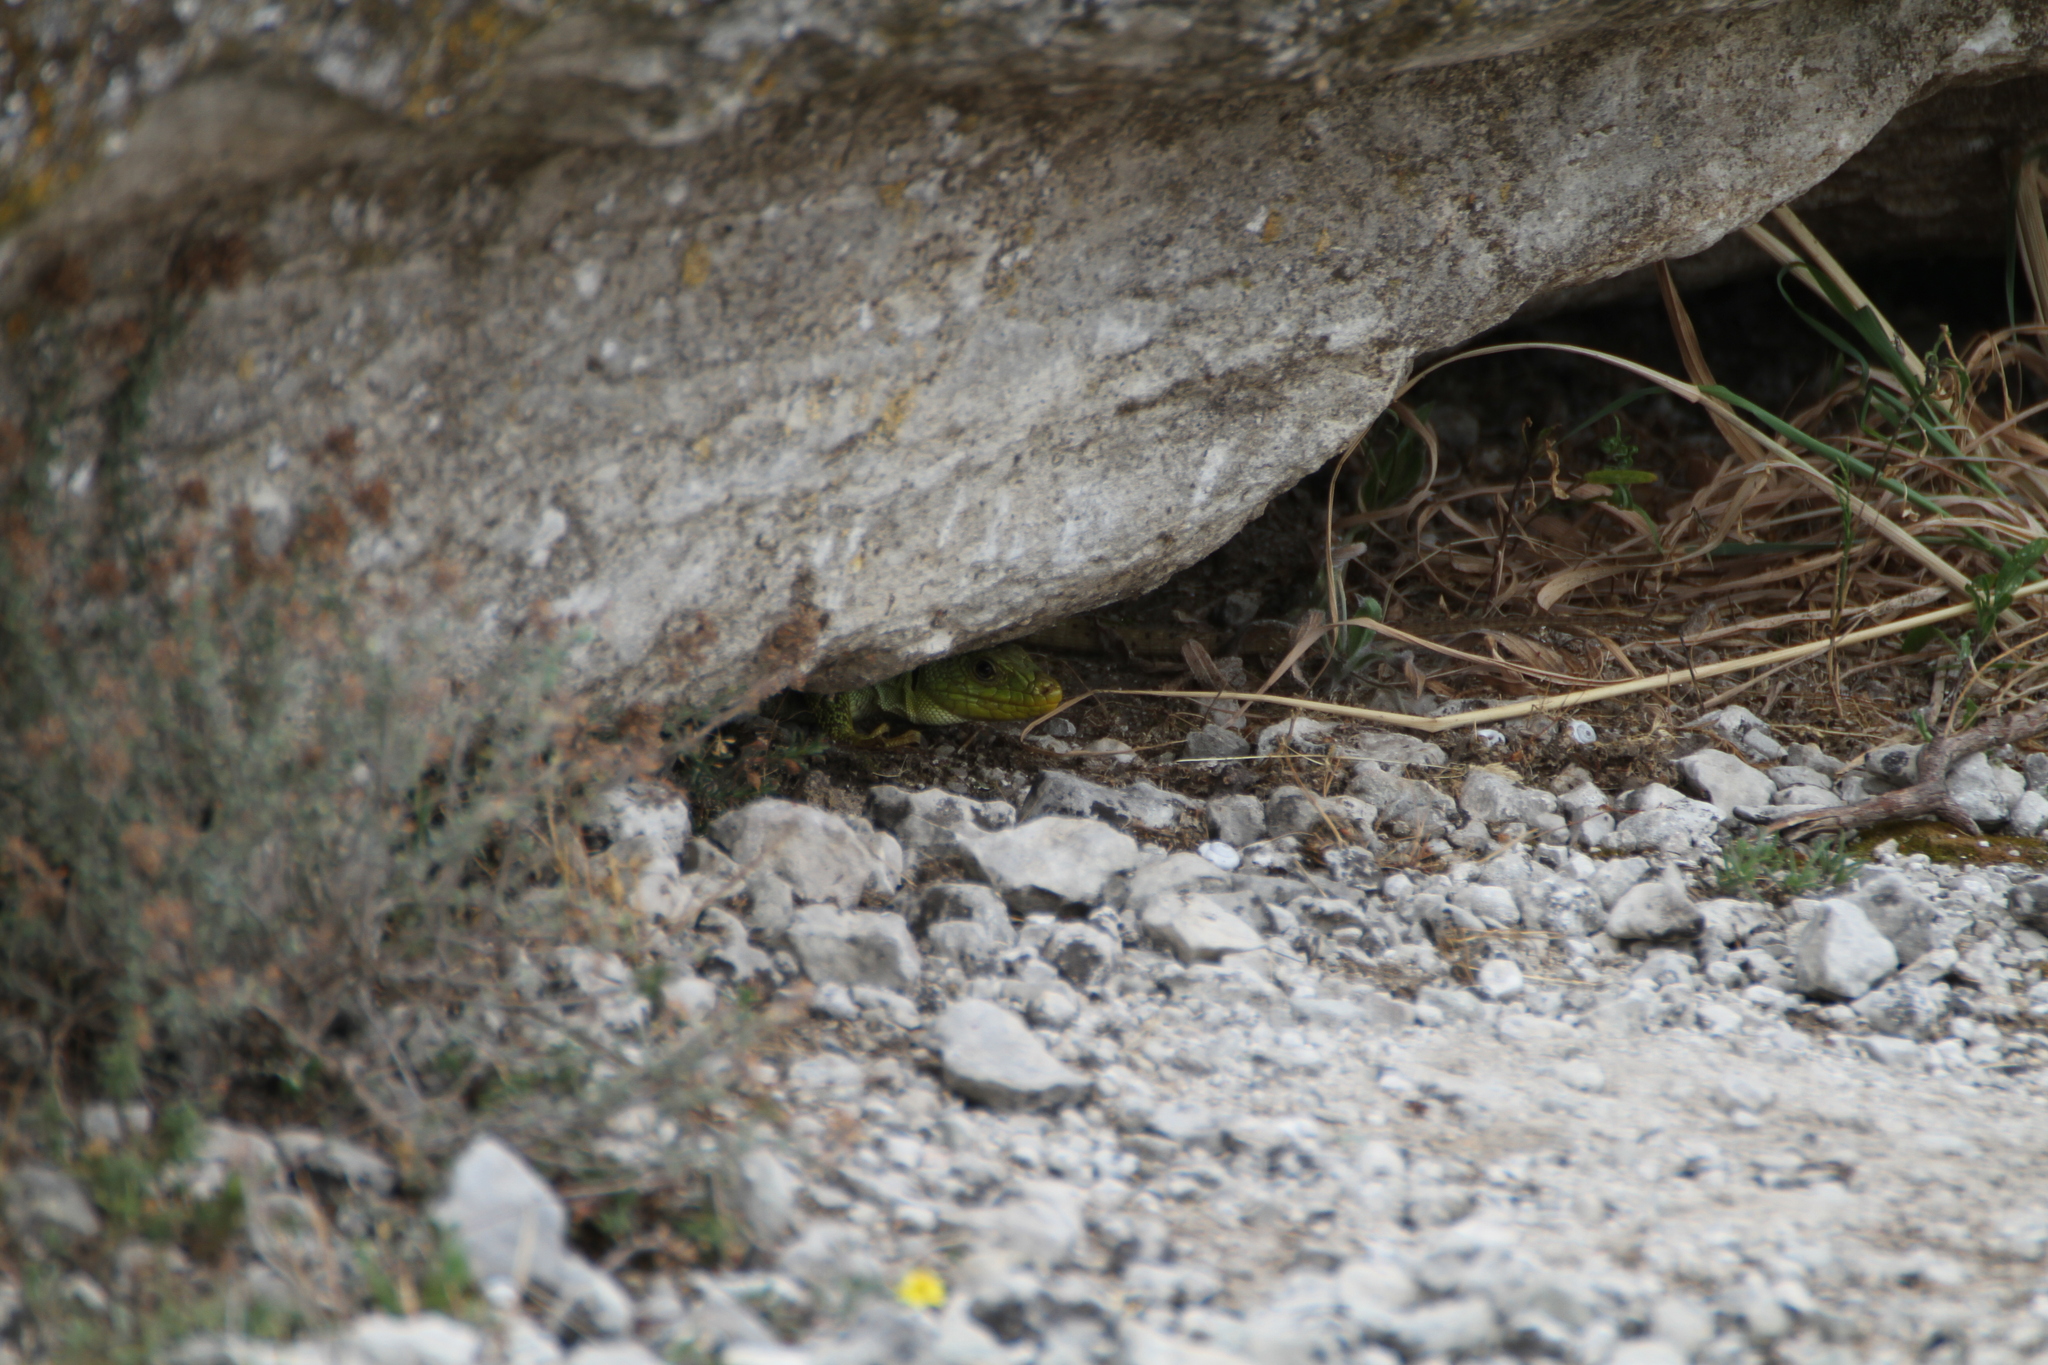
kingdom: Animalia
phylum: Chordata
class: Squamata
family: Lacertidae
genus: Timon
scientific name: Timon lepidus
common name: Ocellated lizard
